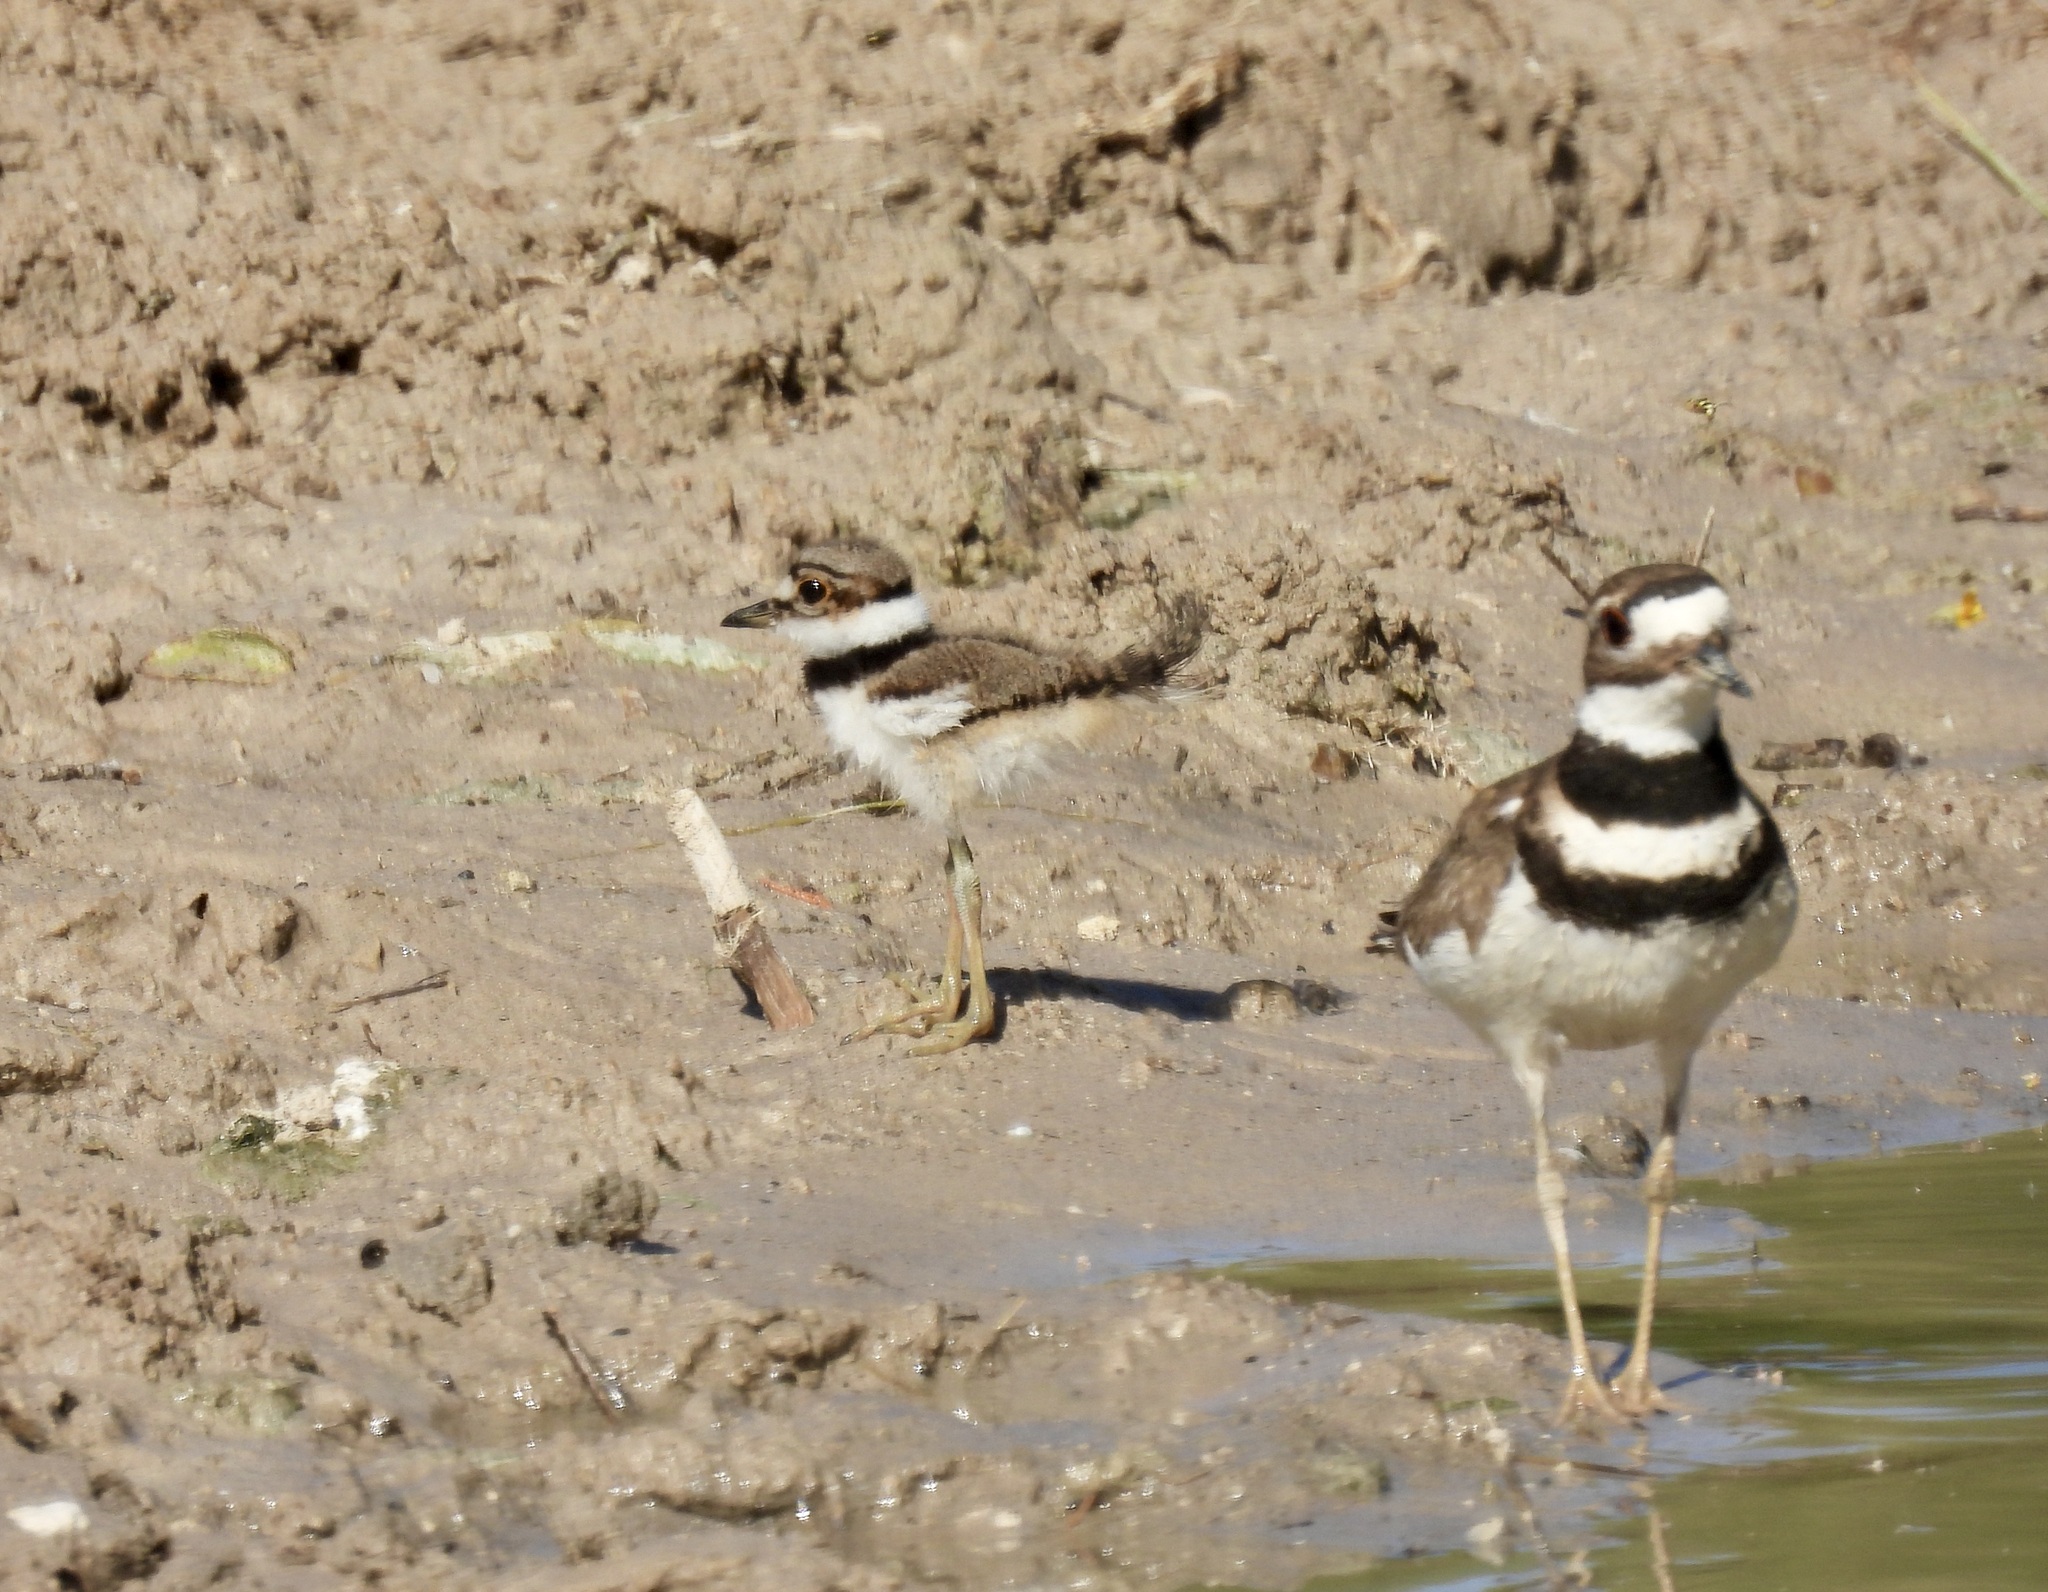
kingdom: Animalia
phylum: Chordata
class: Aves
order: Charadriiformes
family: Charadriidae
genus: Charadrius
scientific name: Charadrius vociferus
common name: Killdeer
